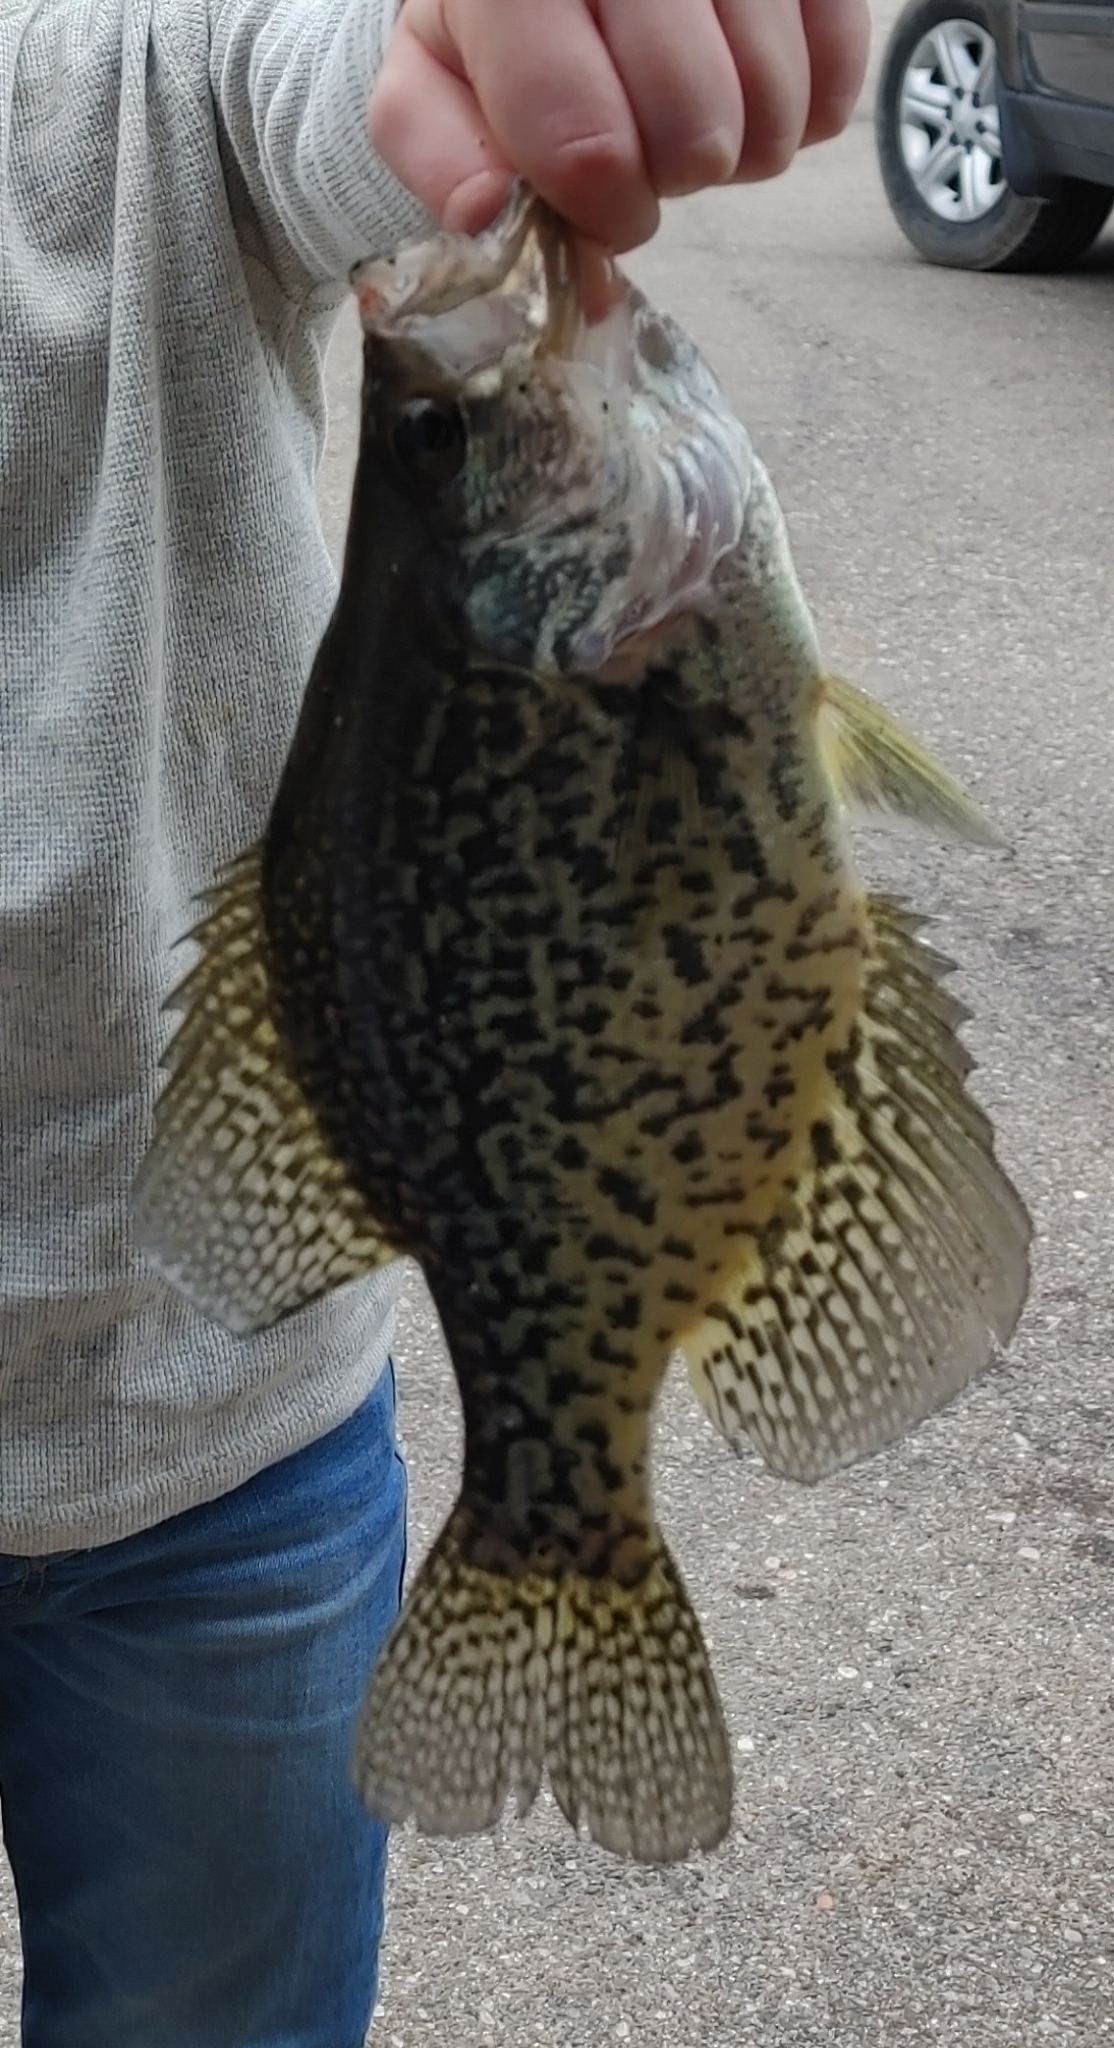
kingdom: Animalia
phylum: Chordata
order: Perciformes
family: Centrarchidae
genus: Pomoxis
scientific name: Pomoxis nigromaculatus
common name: Black crappie
